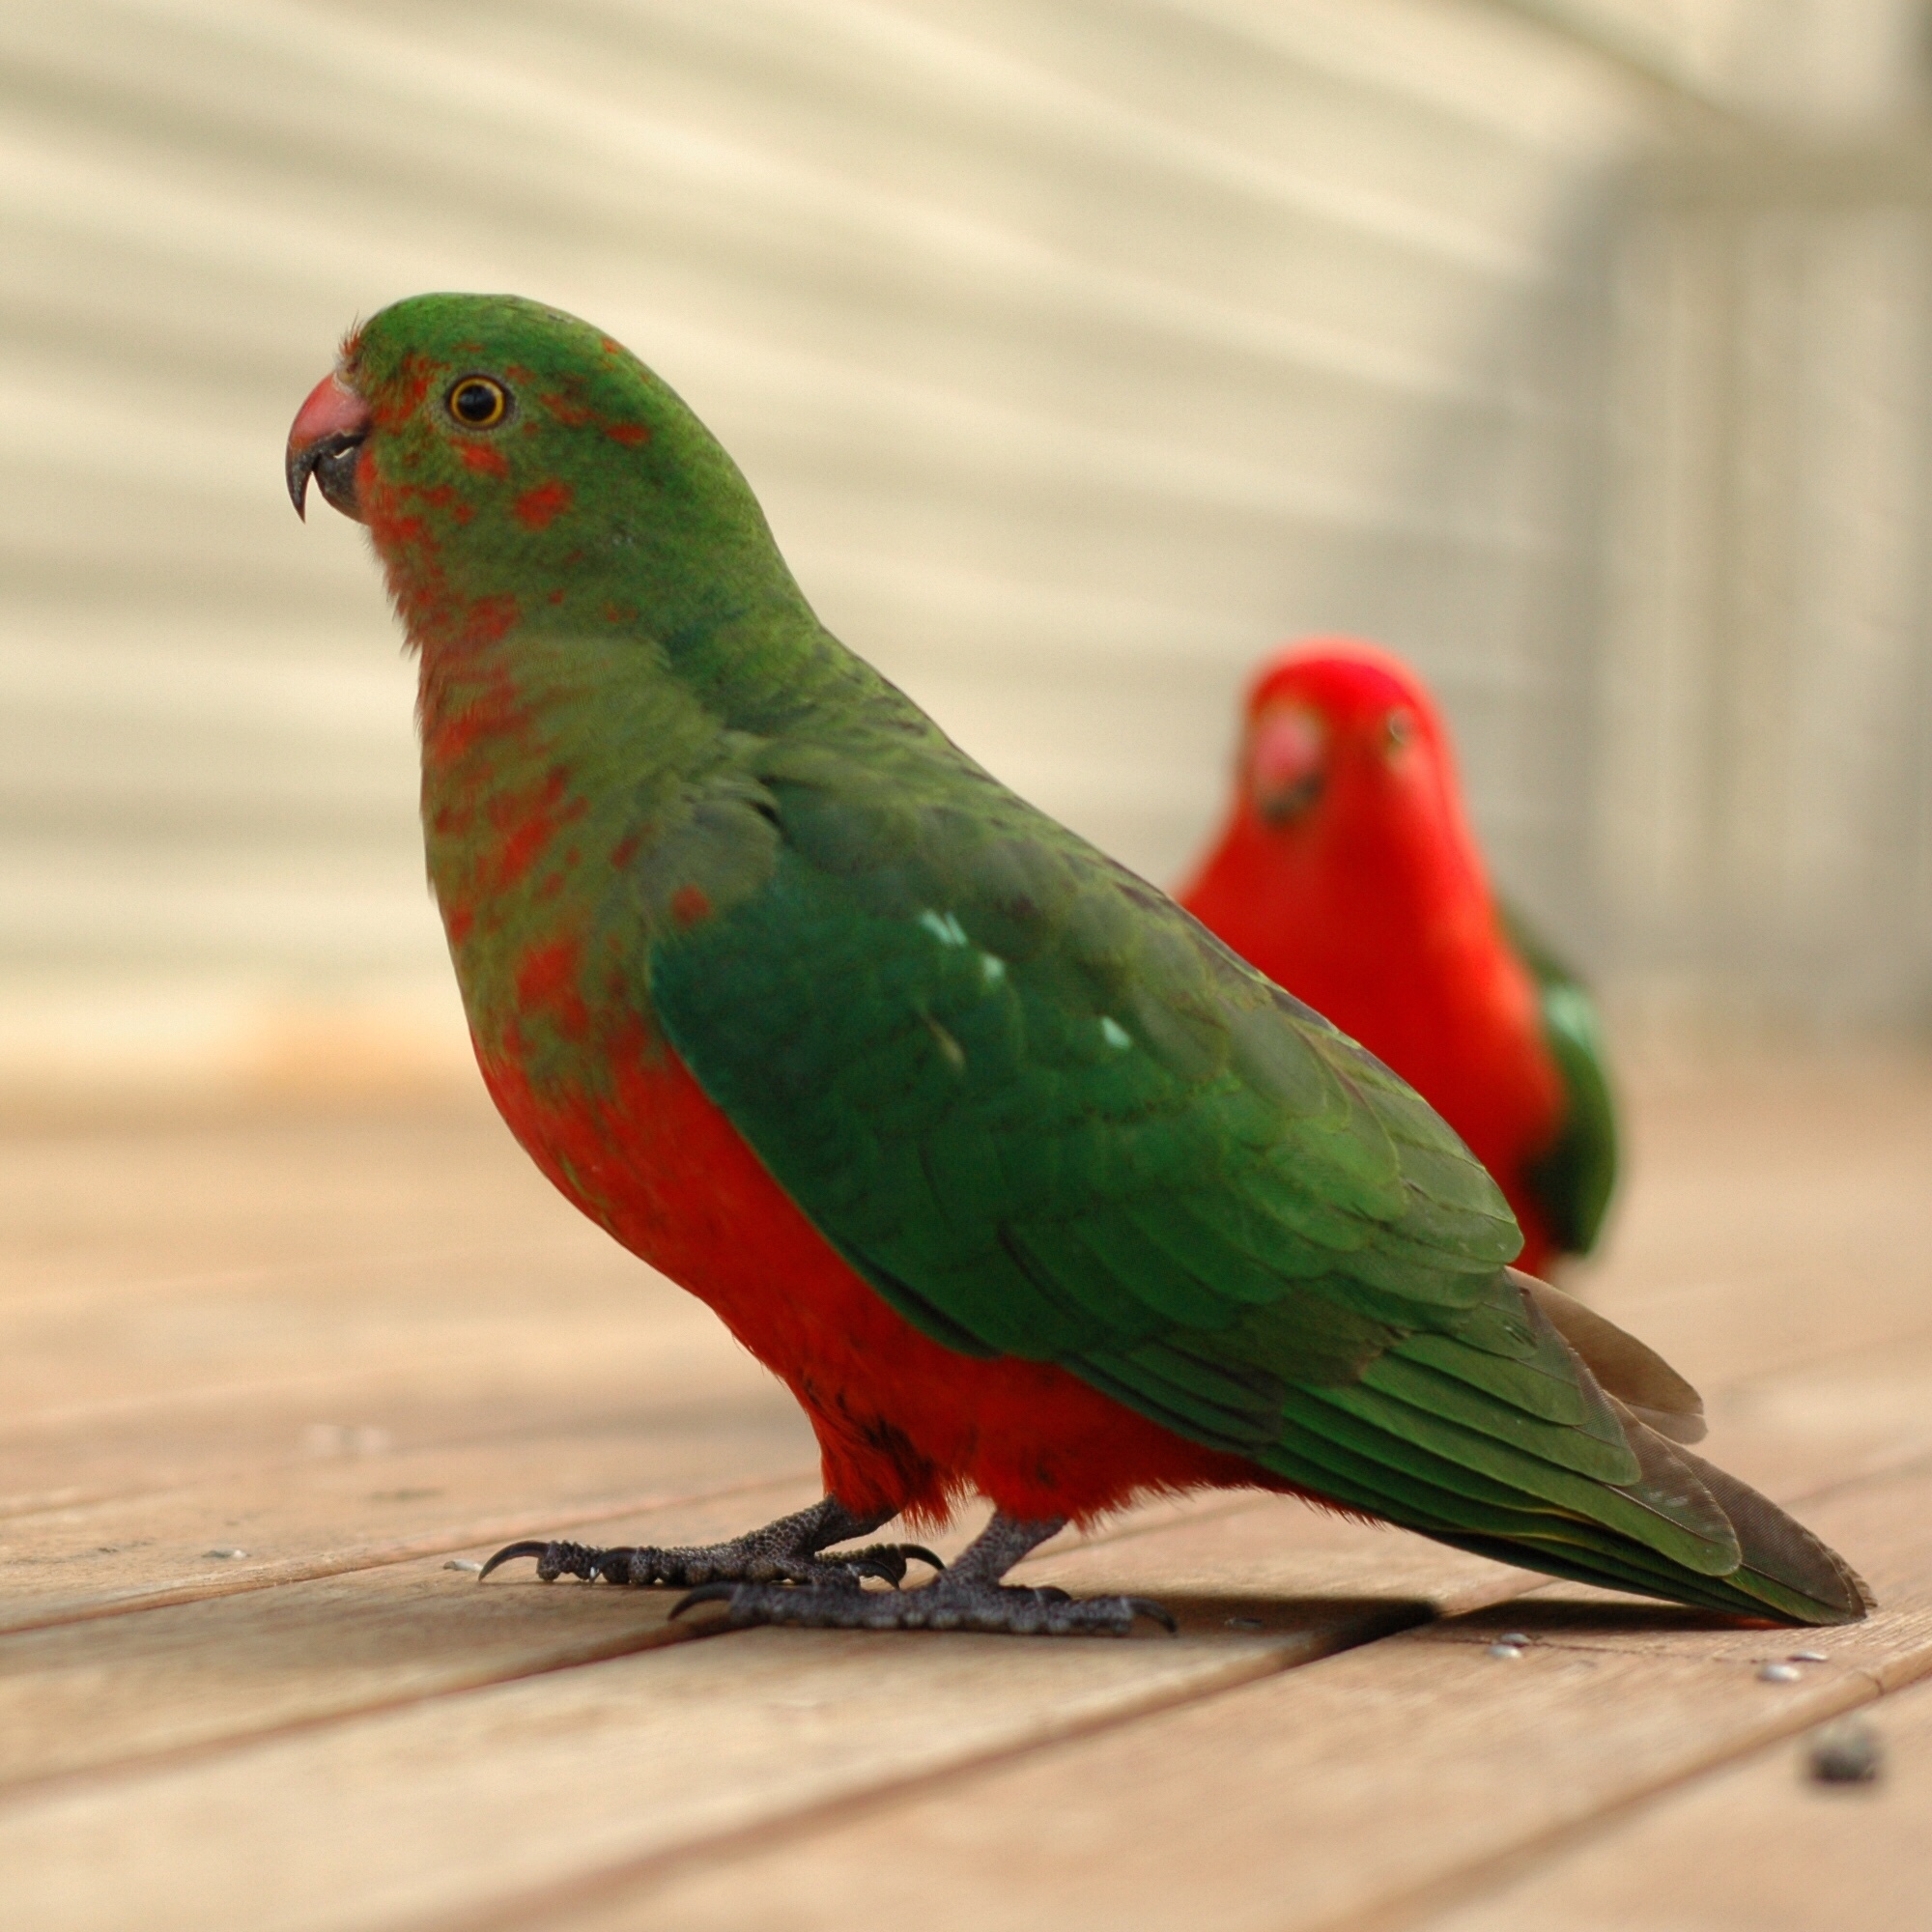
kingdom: Animalia
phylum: Chordata
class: Aves
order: Psittaciformes
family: Psittacidae
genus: Alisterus
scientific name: Alisterus scapularis
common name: Australian king parrot
